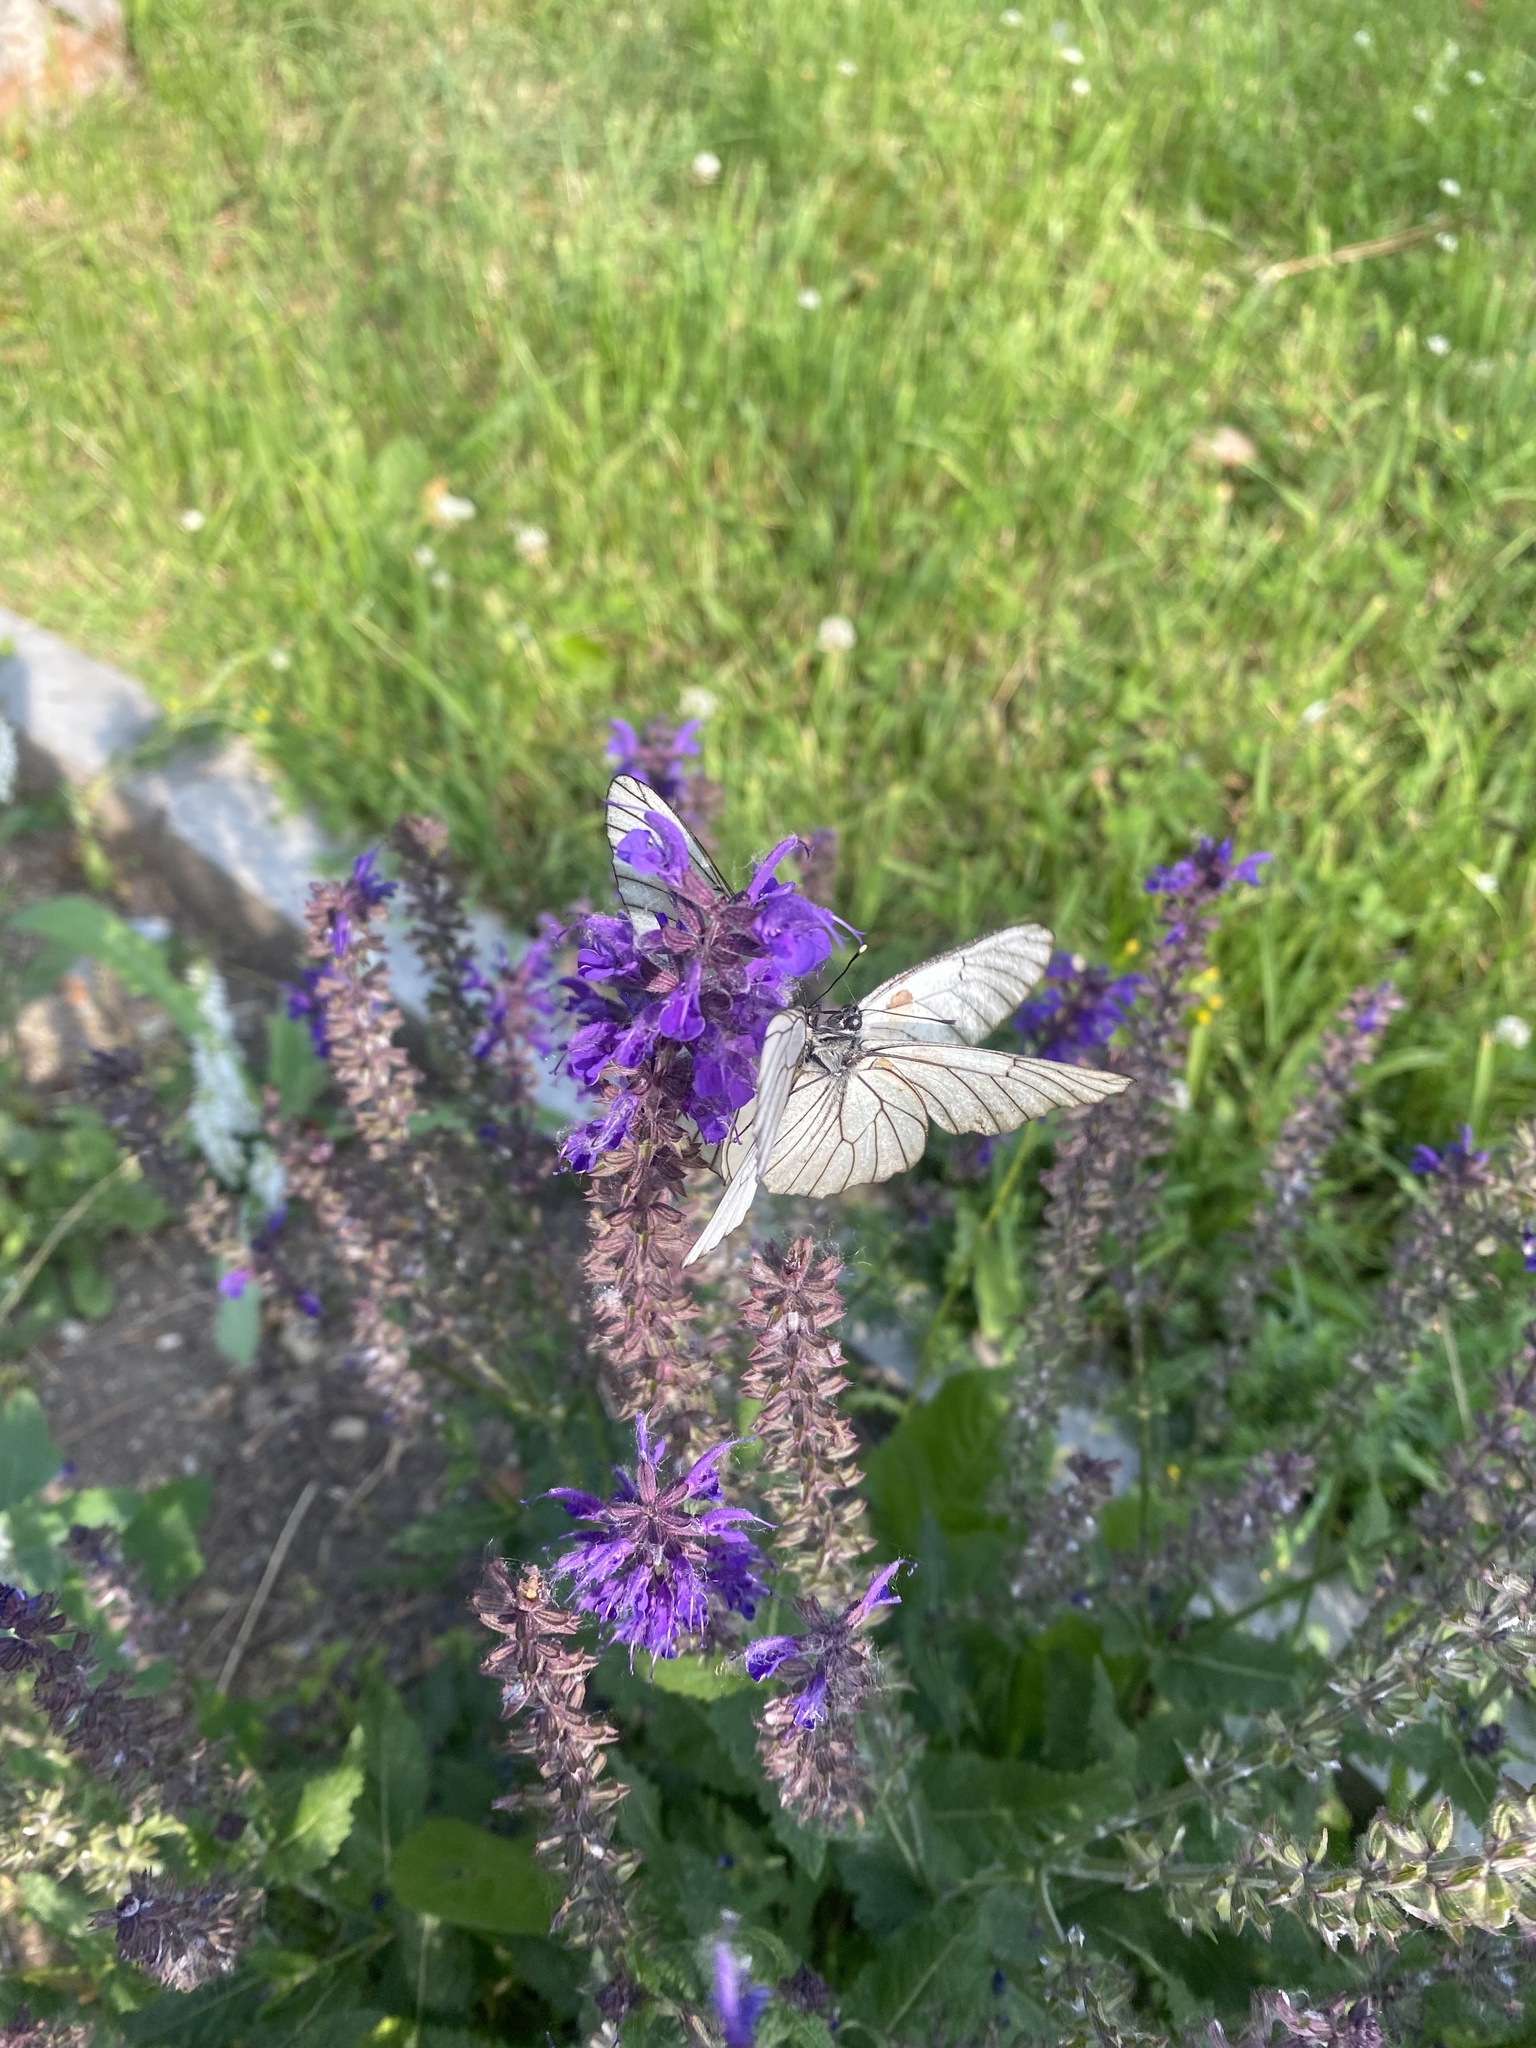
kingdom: Animalia
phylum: Arthropoda
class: Insecta
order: Lepidoptera
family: Pieridae
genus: Aporia
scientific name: Aporia crataegi
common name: Black-veined white
